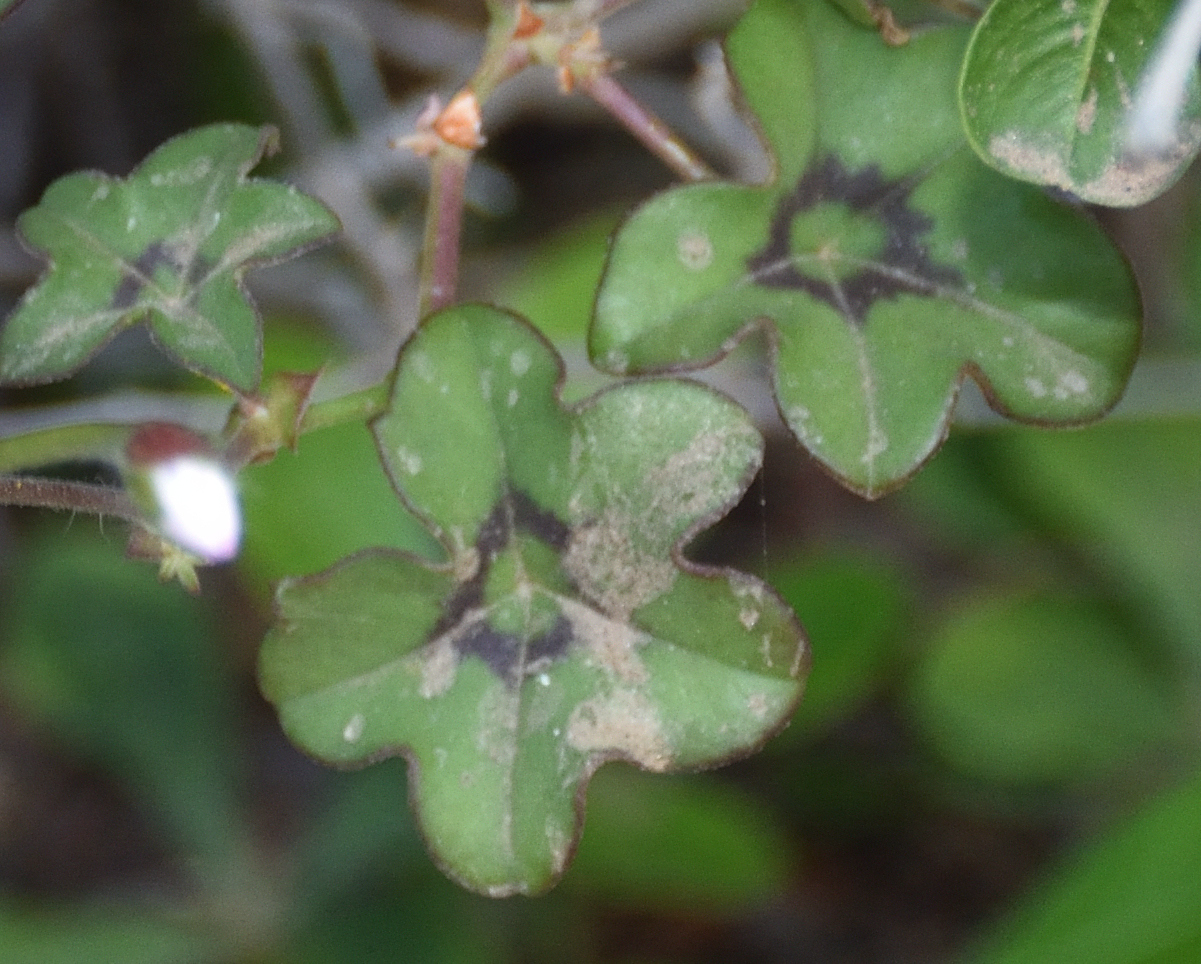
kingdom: Plantae
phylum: Tracheophyta
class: Magnoliopsida
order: Geraniales
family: Geraniaceae
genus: Pelargonium
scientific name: Pelargonium peltatum
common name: Ivyleaf geranium
